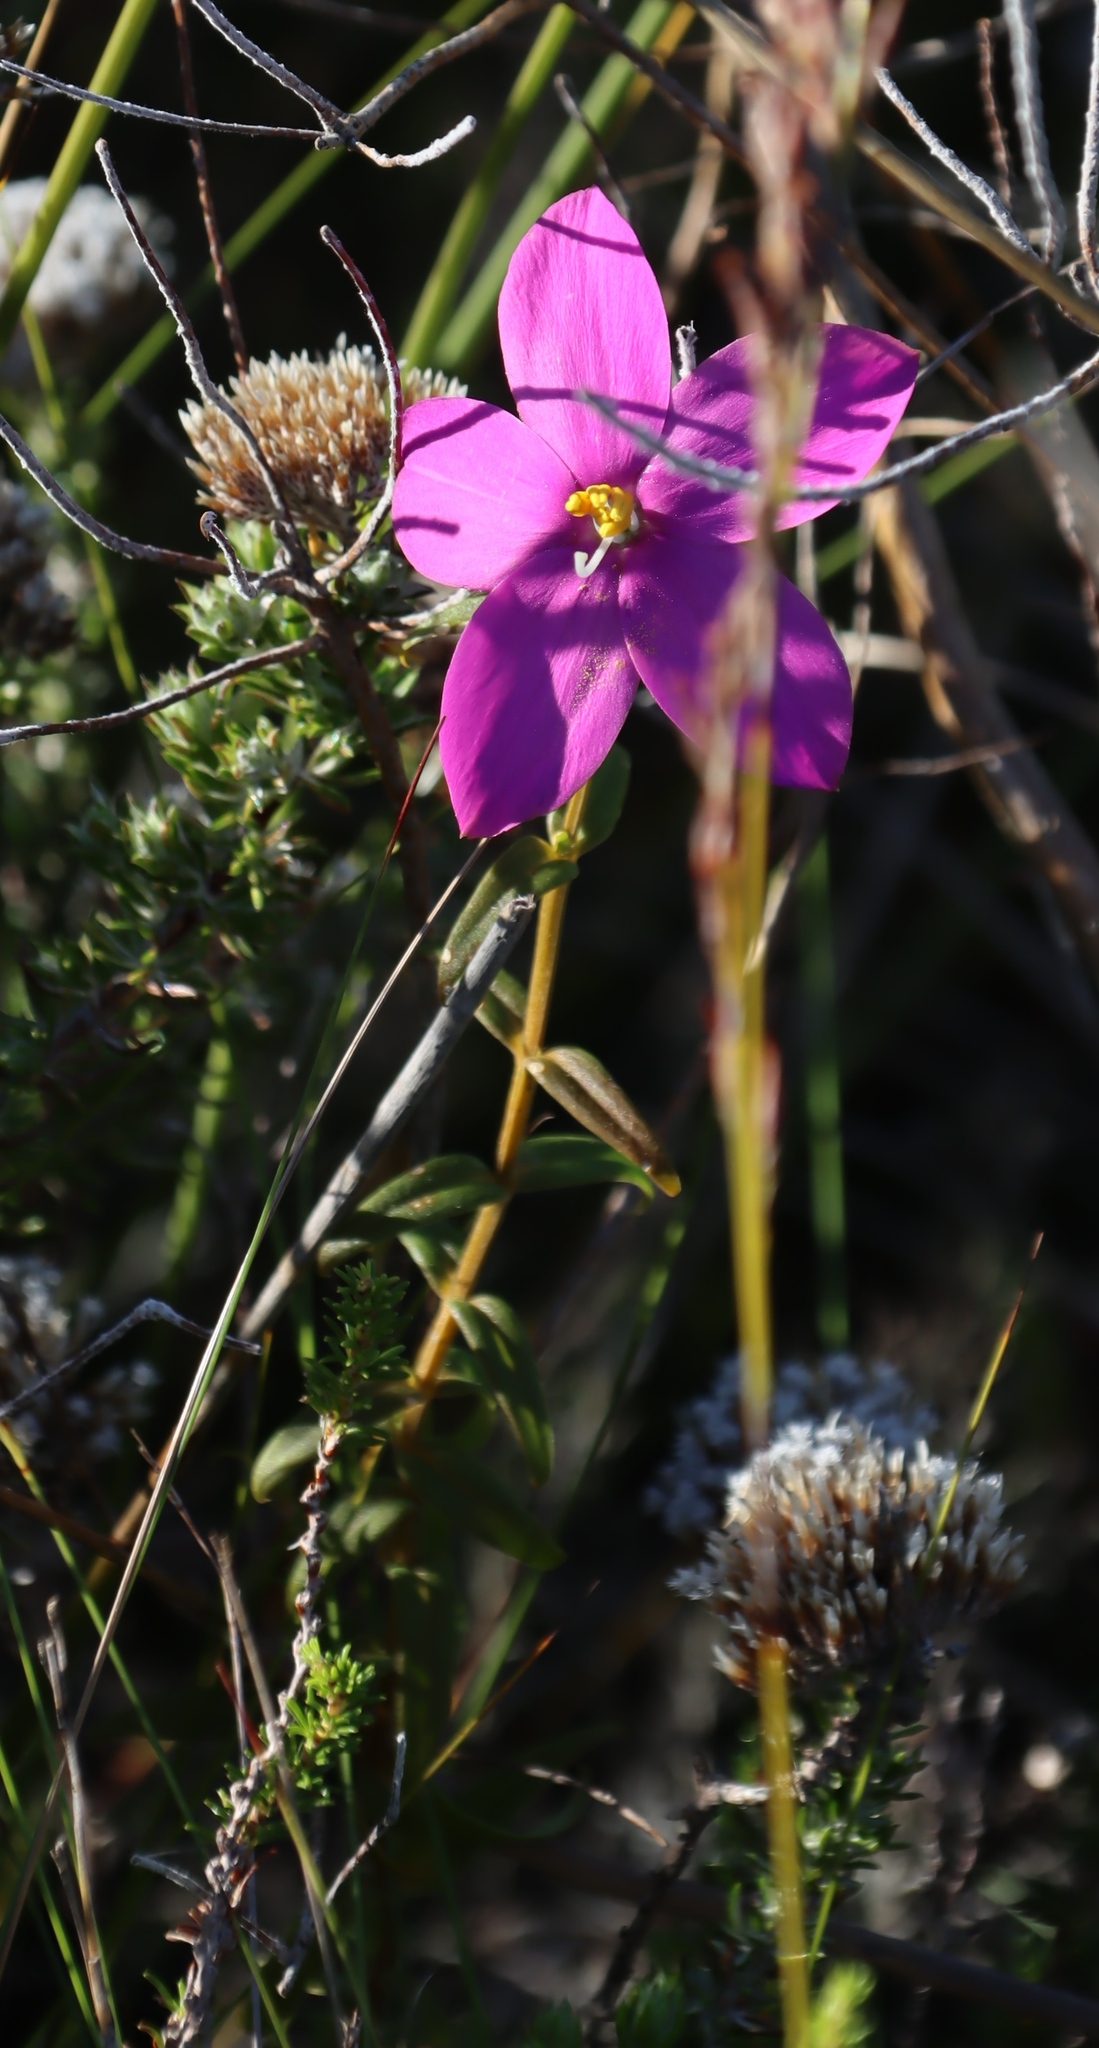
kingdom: Plantae
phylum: Tracheophyta
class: Magnoliopsida
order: Gentianales
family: Gentianaceae
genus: Chironia
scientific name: Chironia tetragona
